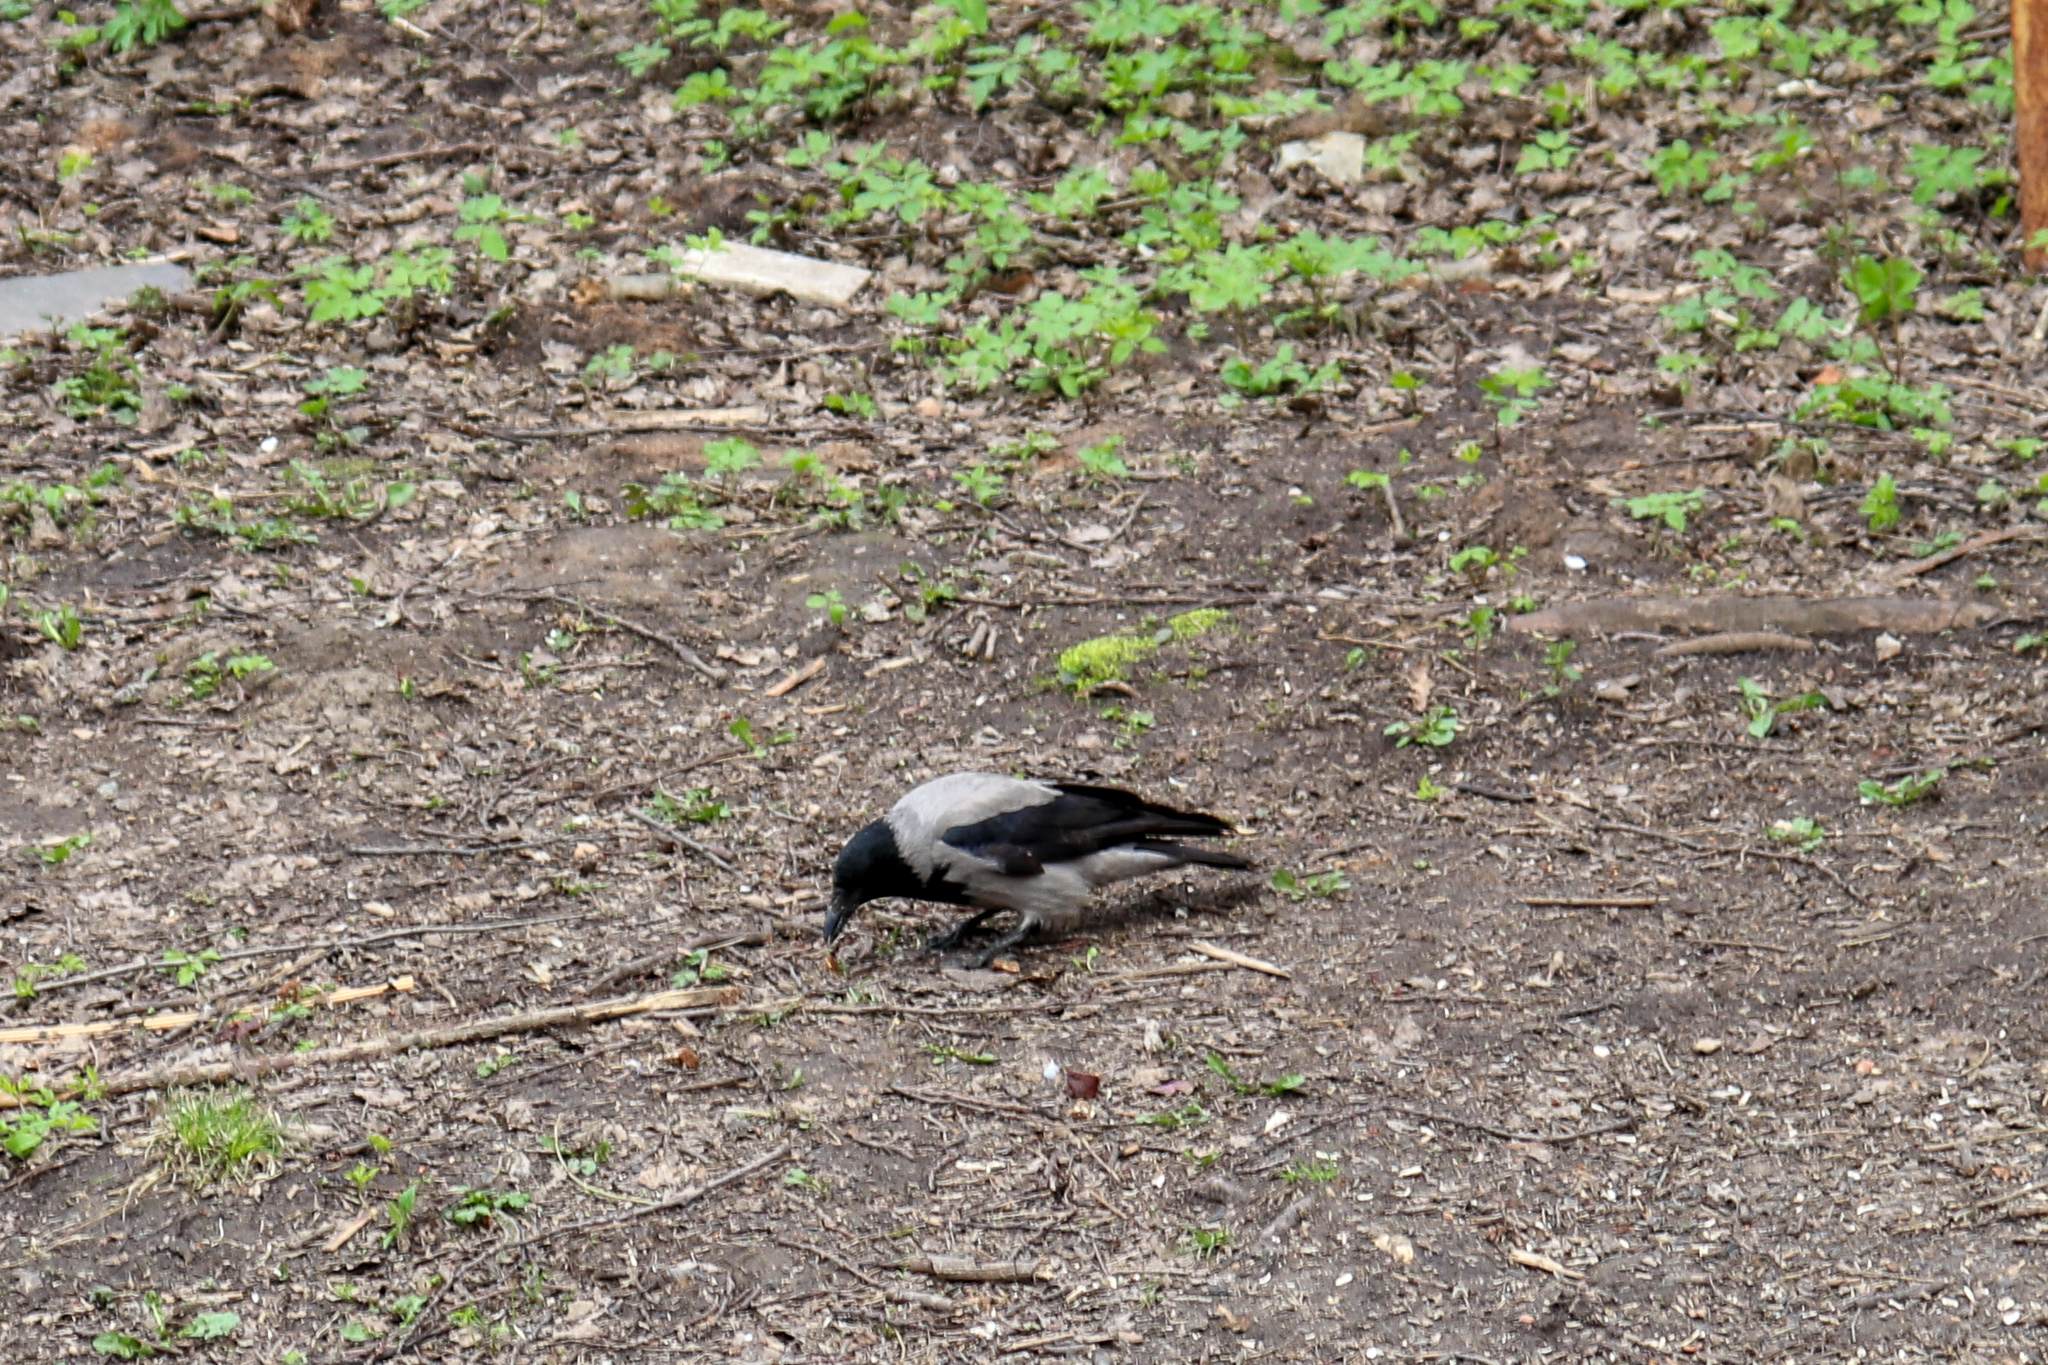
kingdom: Animalia
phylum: Chordata
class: Aves
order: Passeriformes
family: Corvidae
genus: Corvus
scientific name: Corvus cornix
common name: Hooded crow
